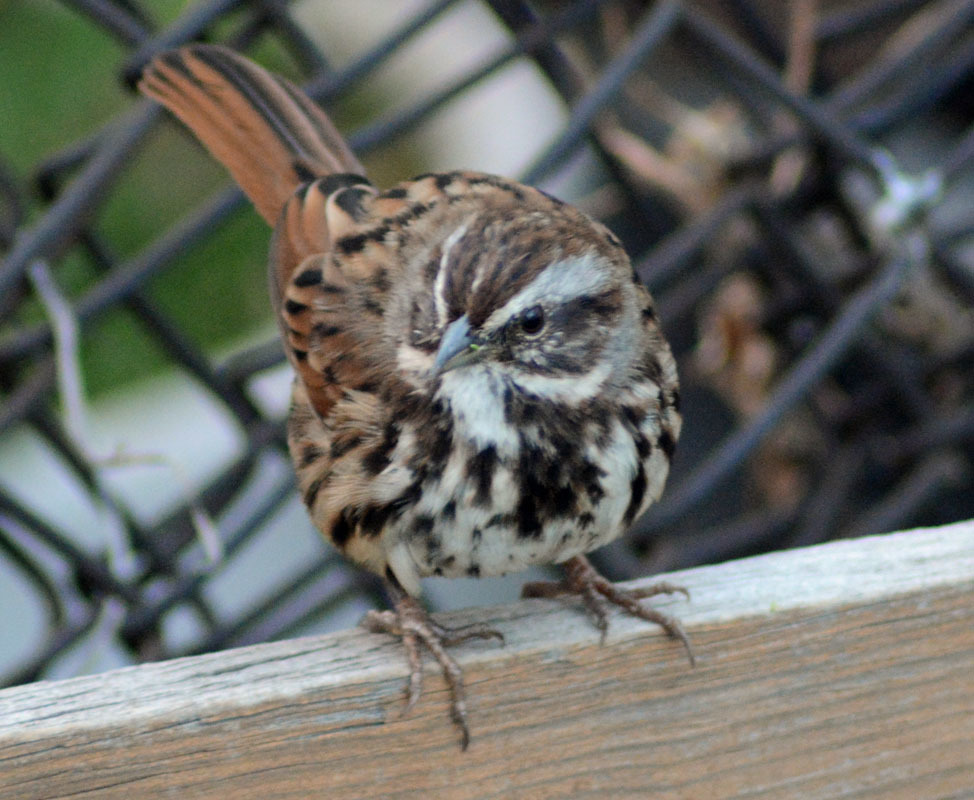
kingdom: Animalia
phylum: Chordata
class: Aves
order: Passeriformes
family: Passerellidae
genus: Melospiza
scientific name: Melospiza melodia
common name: Song sparrow
